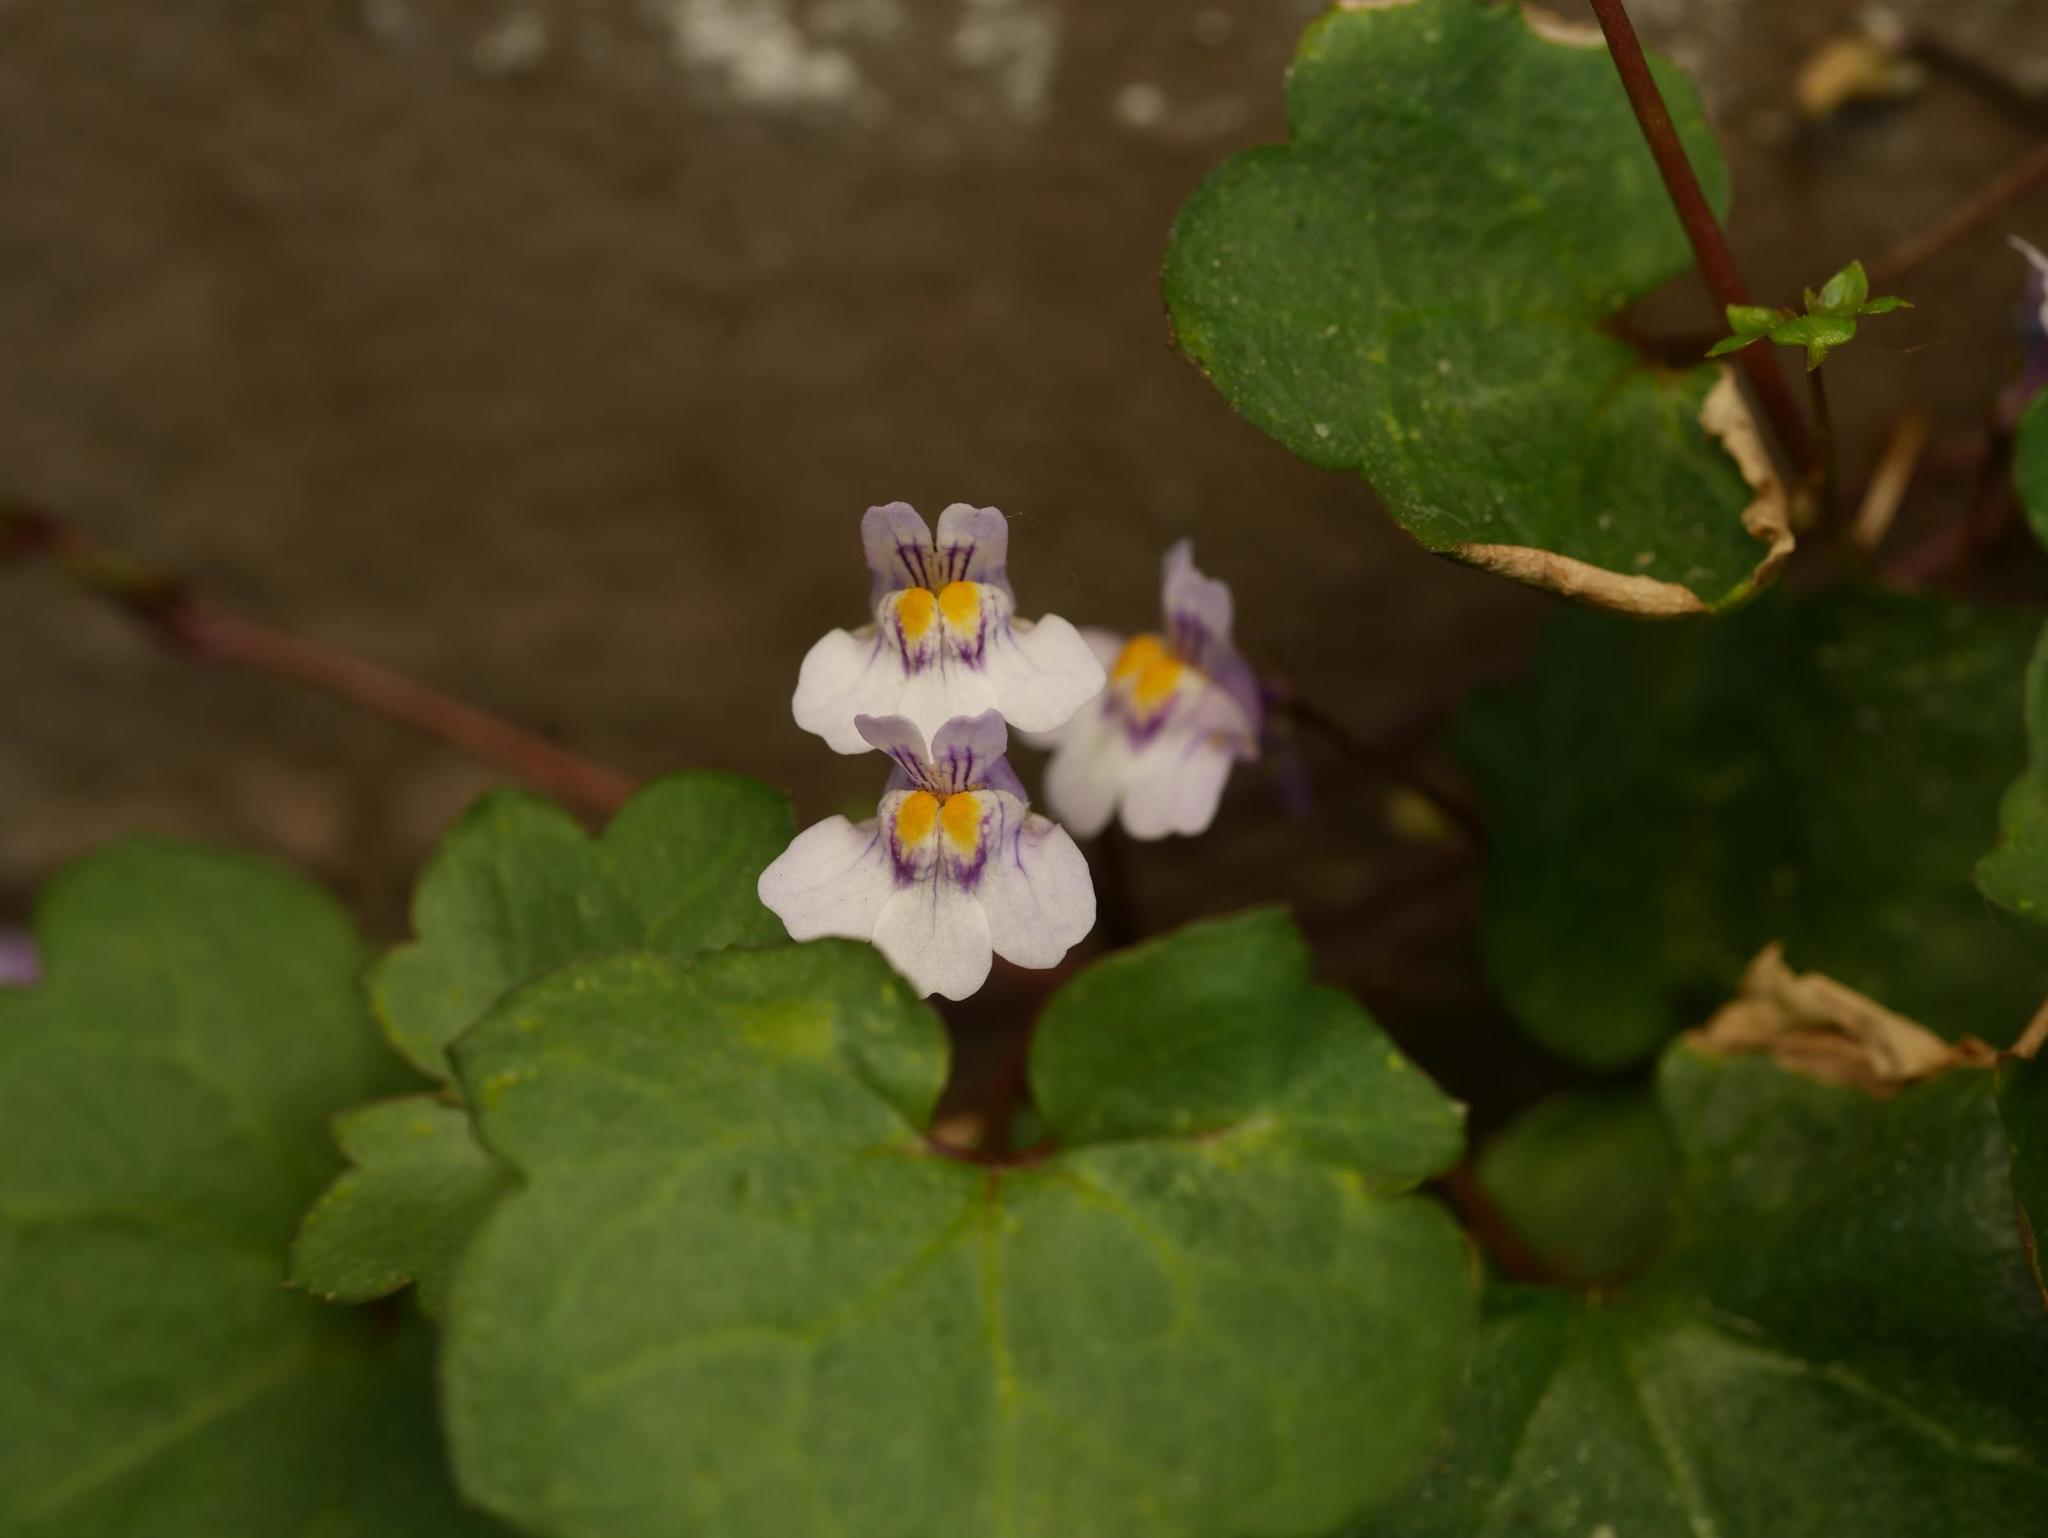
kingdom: Plantae
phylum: Tracheophyta
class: Magnoliopsida
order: Lamiales
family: Plantaginaceae
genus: Cymbalaria
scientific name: Cymbalaria muralis
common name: Ivy-leaved toadflax
